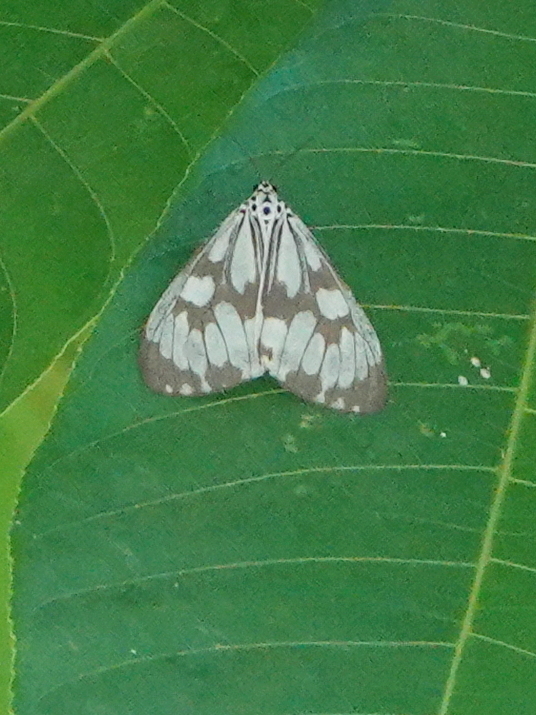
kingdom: Animalia
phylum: Arthropoda
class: Insecta
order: Lepidoptera
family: Erebidae
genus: Nyctemera
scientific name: Nyctemera adversata
